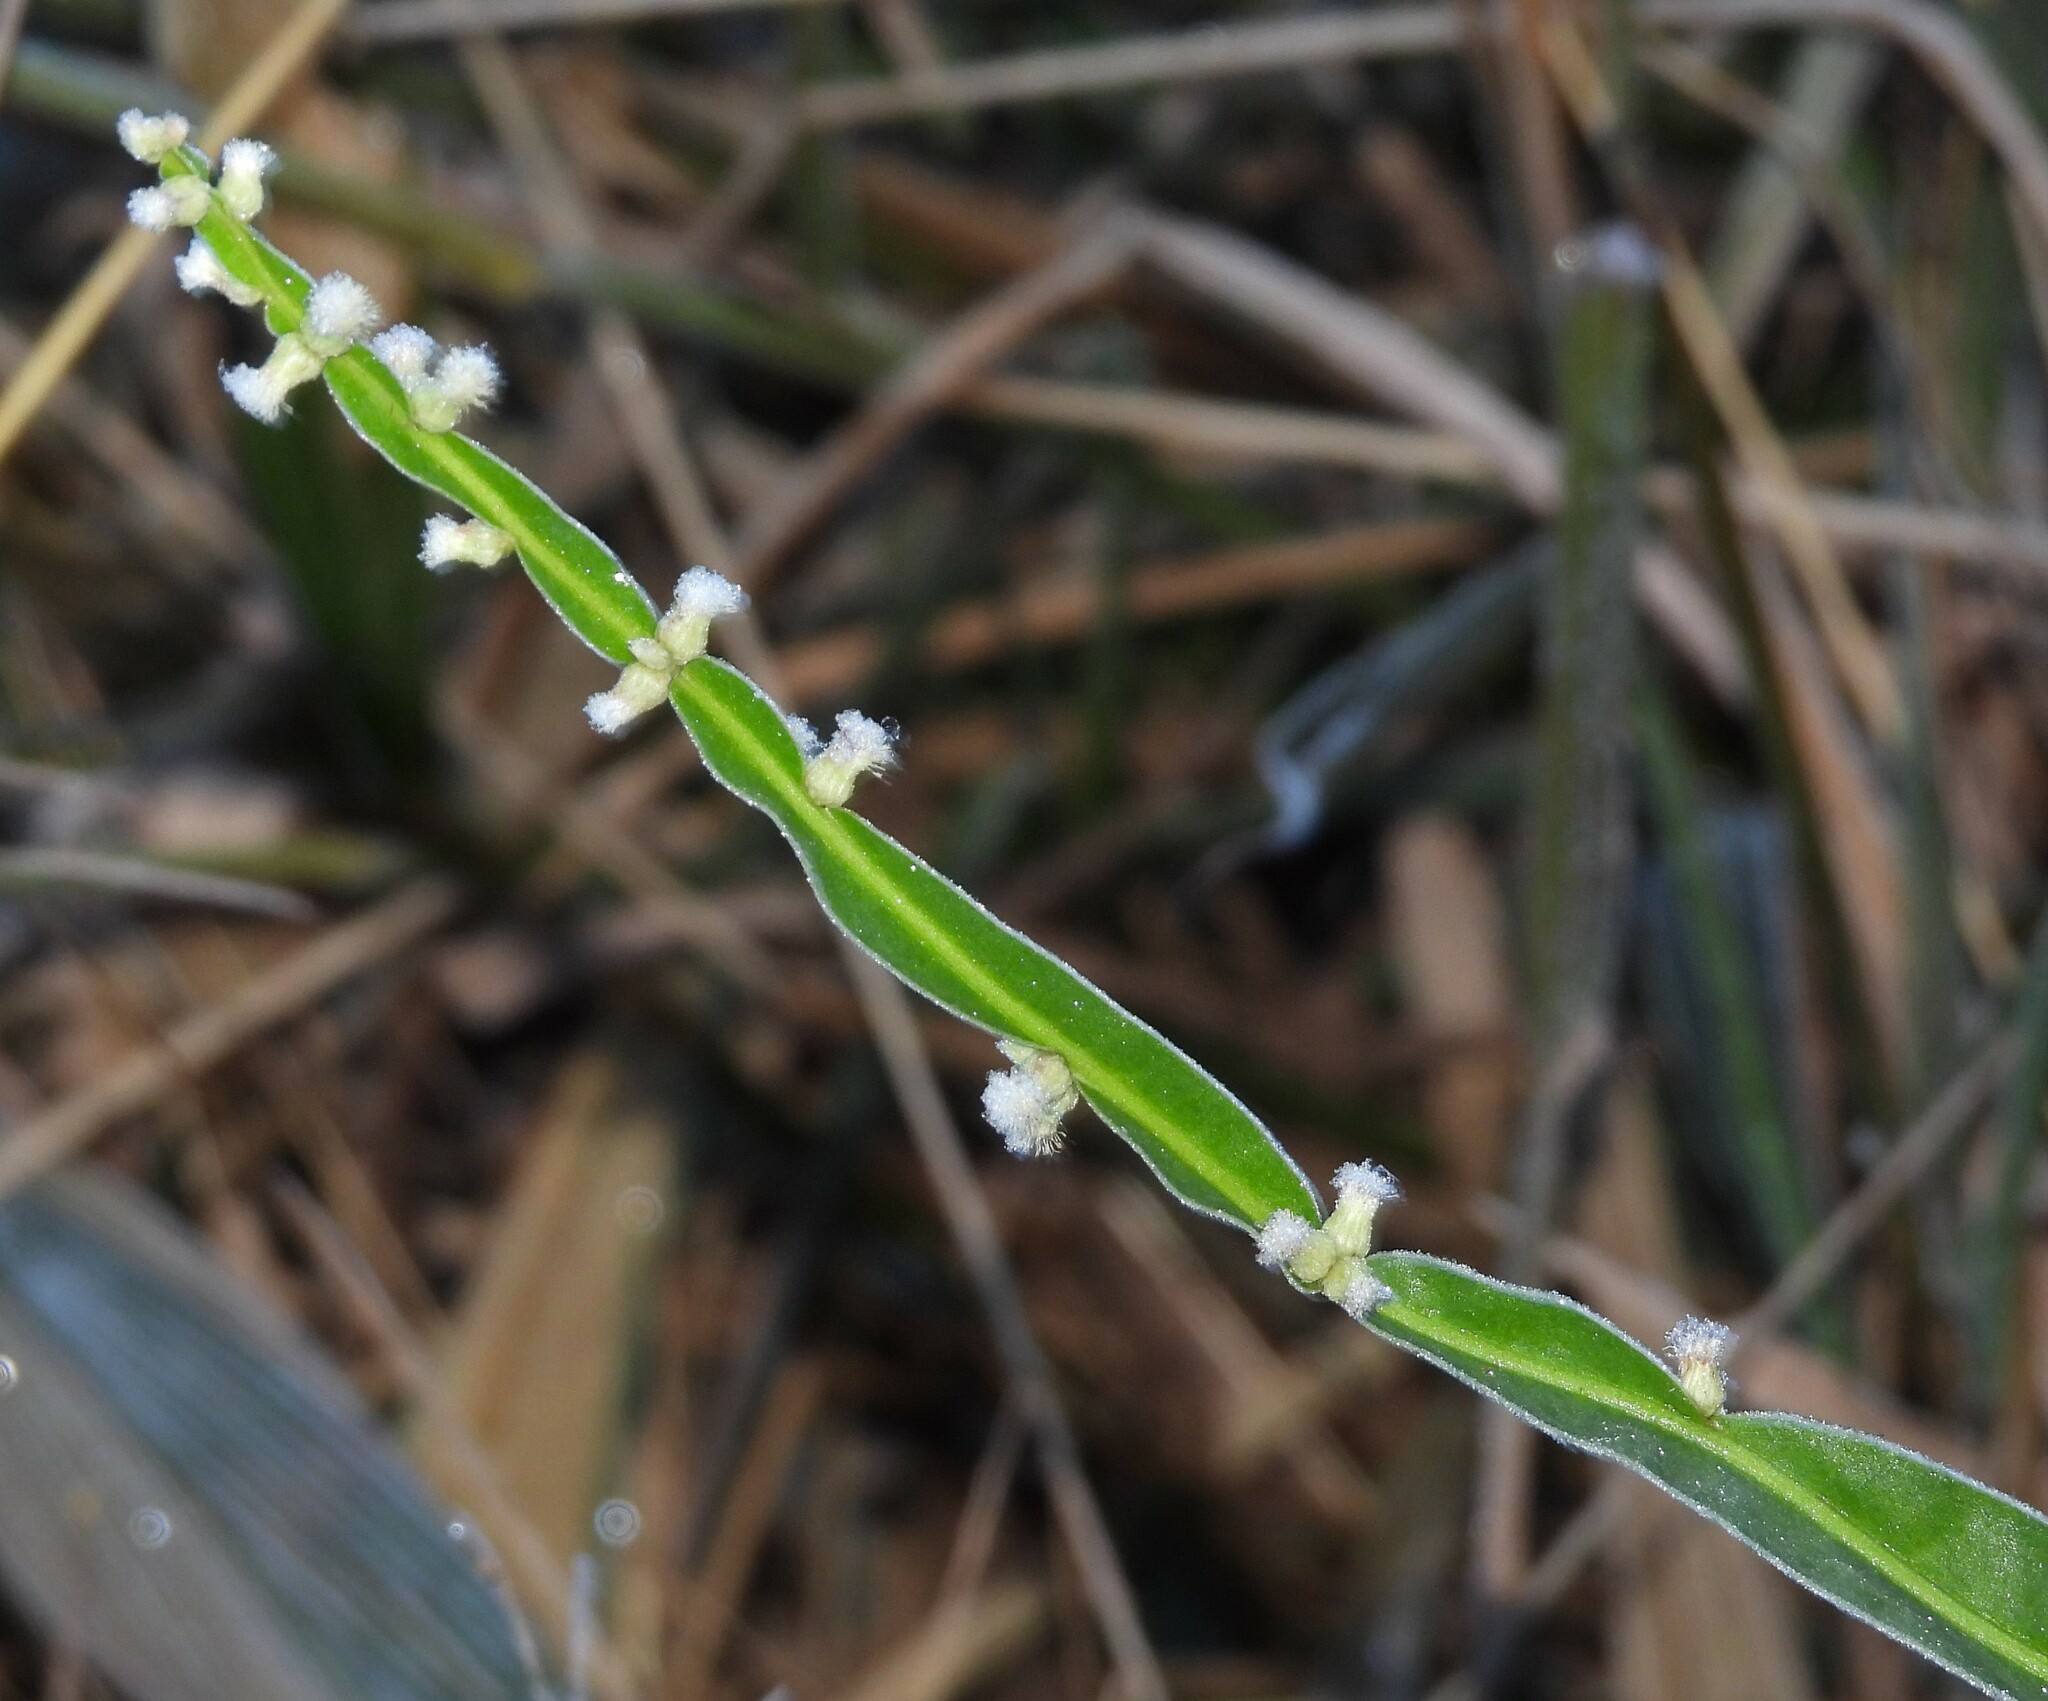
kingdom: Plantae
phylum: Tracheophyta
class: Magnoliopsida
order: Asterales
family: Asteraceae
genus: Baccharis
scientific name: Baccharis trimera
